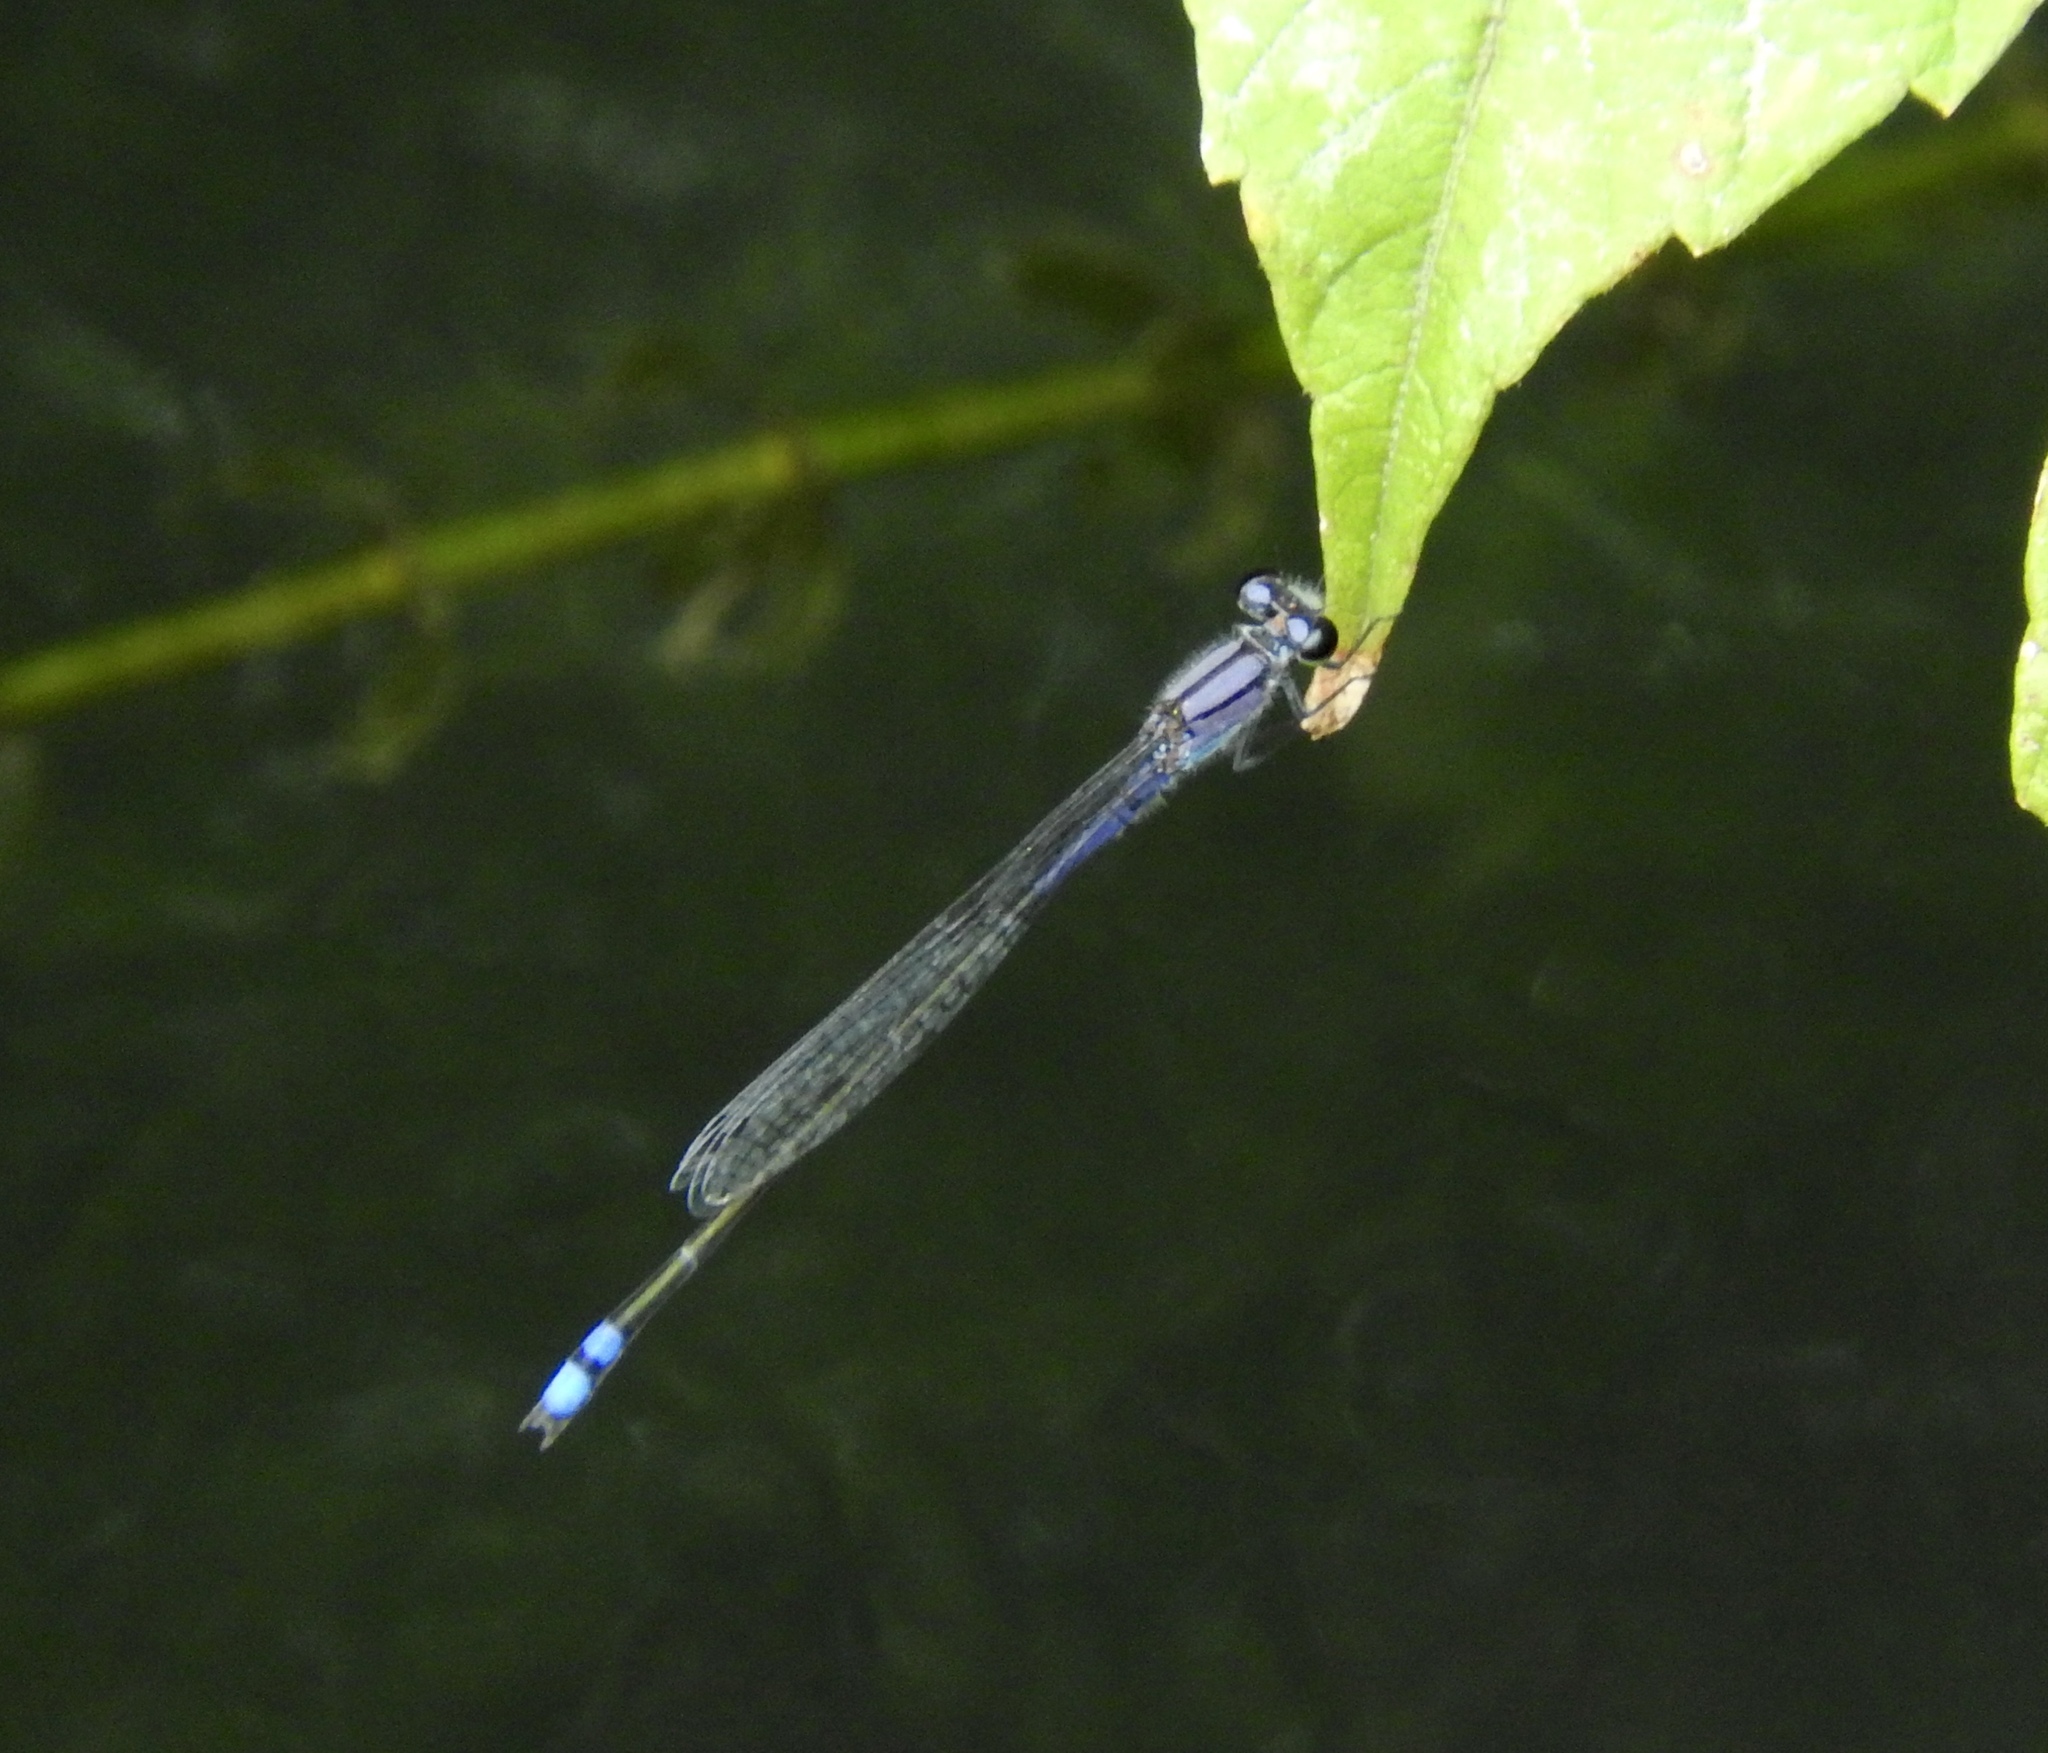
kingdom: Animalia
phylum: Arthropoda
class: Insecta
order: Odonata
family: Coenagrionidae
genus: Enallagma
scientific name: Enallagma novaehispaniae
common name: Neotropical bluet
